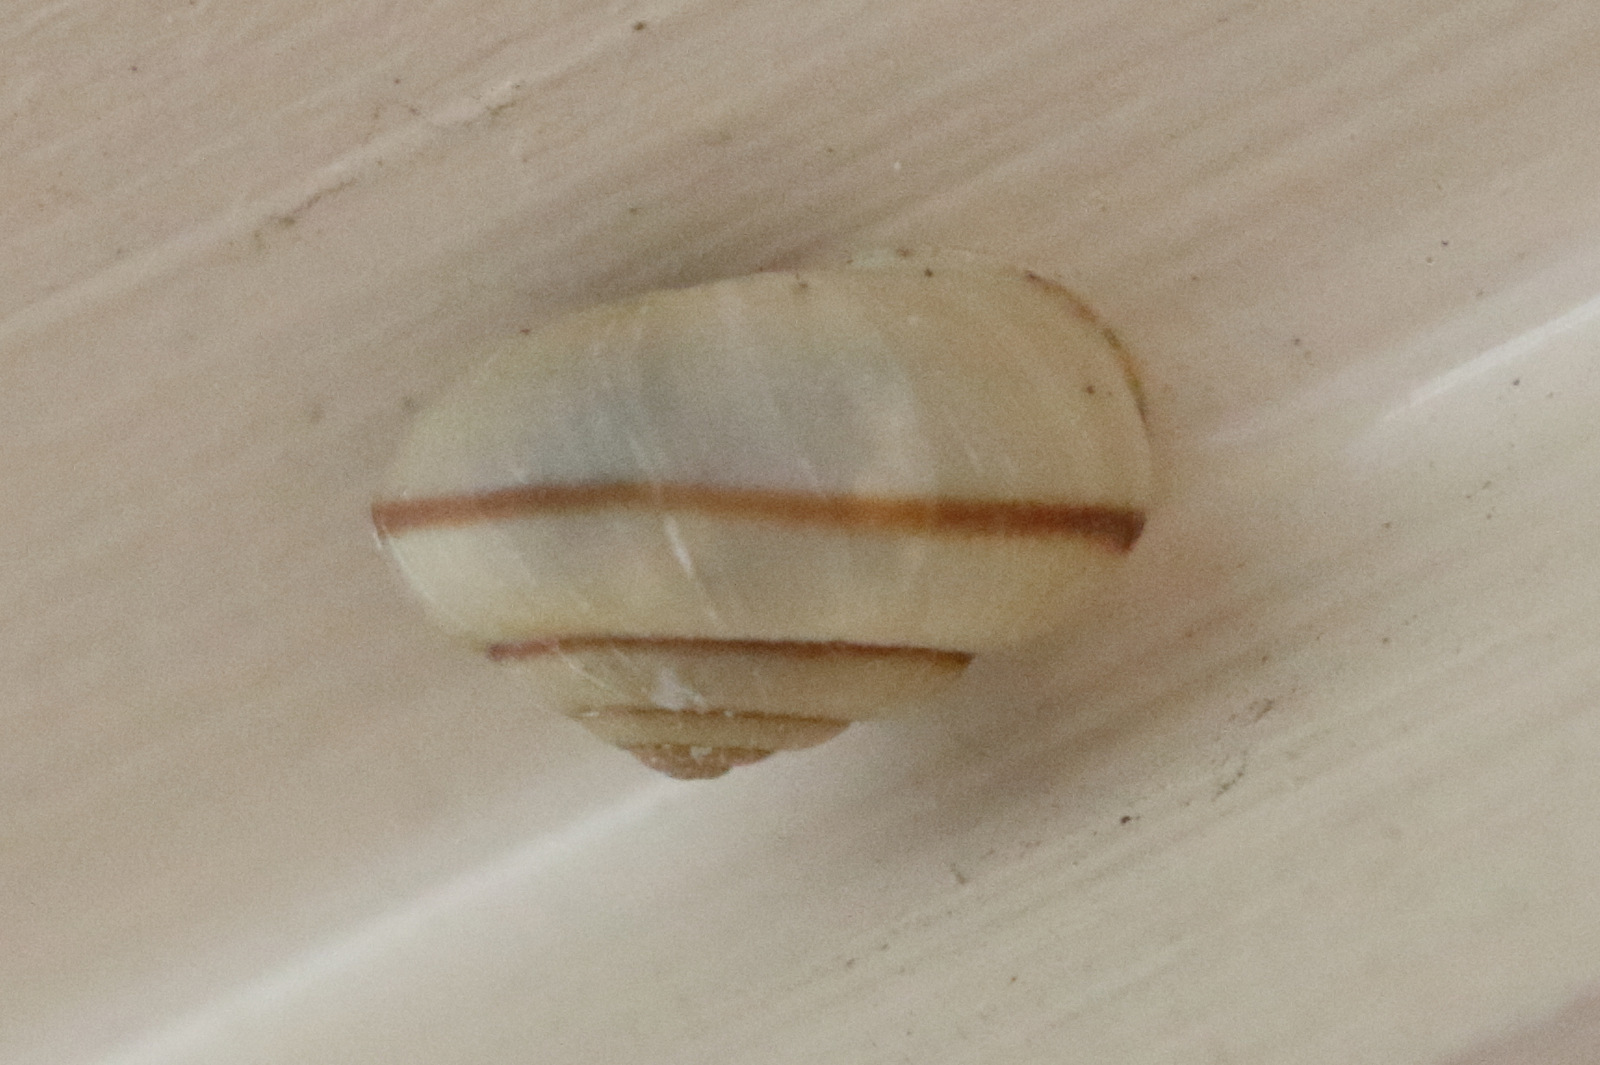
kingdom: Animalia
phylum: Mollusca
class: Gastropoda
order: Stylommatophora
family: Camaenidae
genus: Bradybaena
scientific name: Bradybaena similaris
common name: Asian trampsnail
